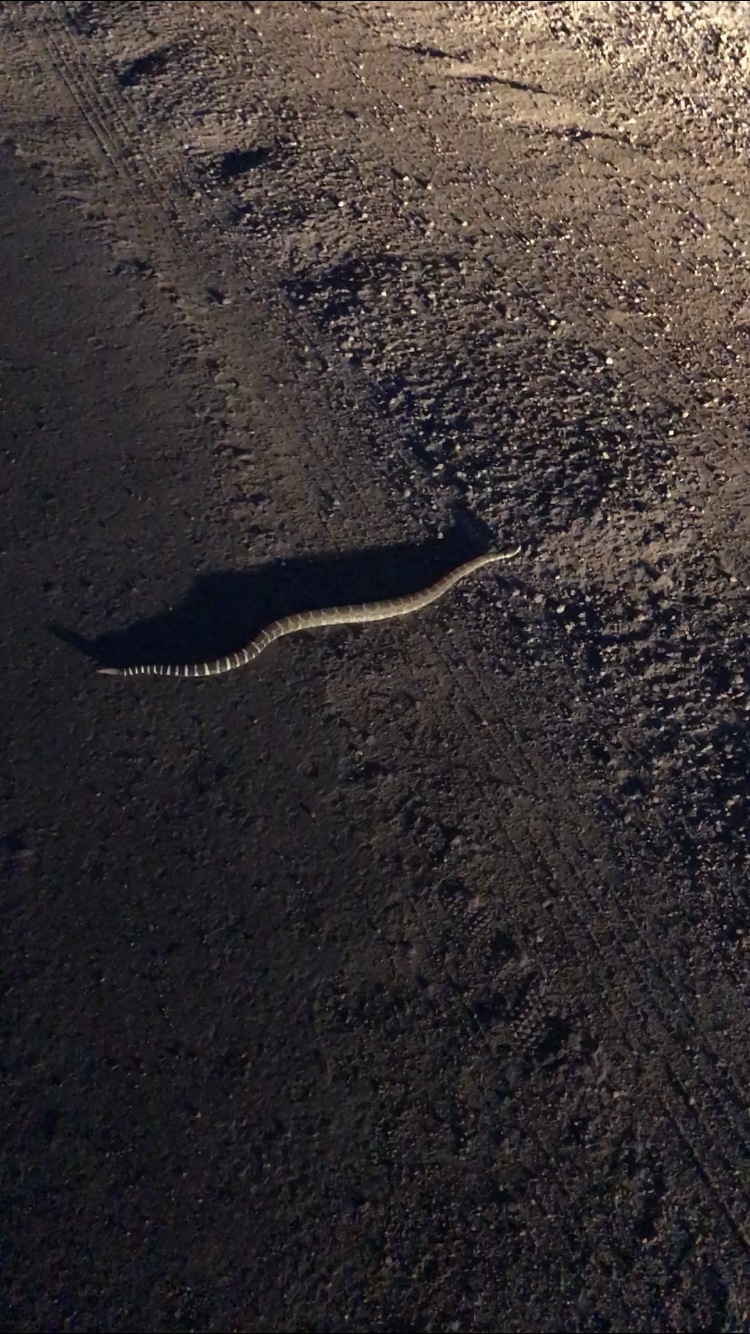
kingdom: Animalia
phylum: Chordata
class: Squamata
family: Viperidae
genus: Crotalus
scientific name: Crotalus oreganus
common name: Abyssus
